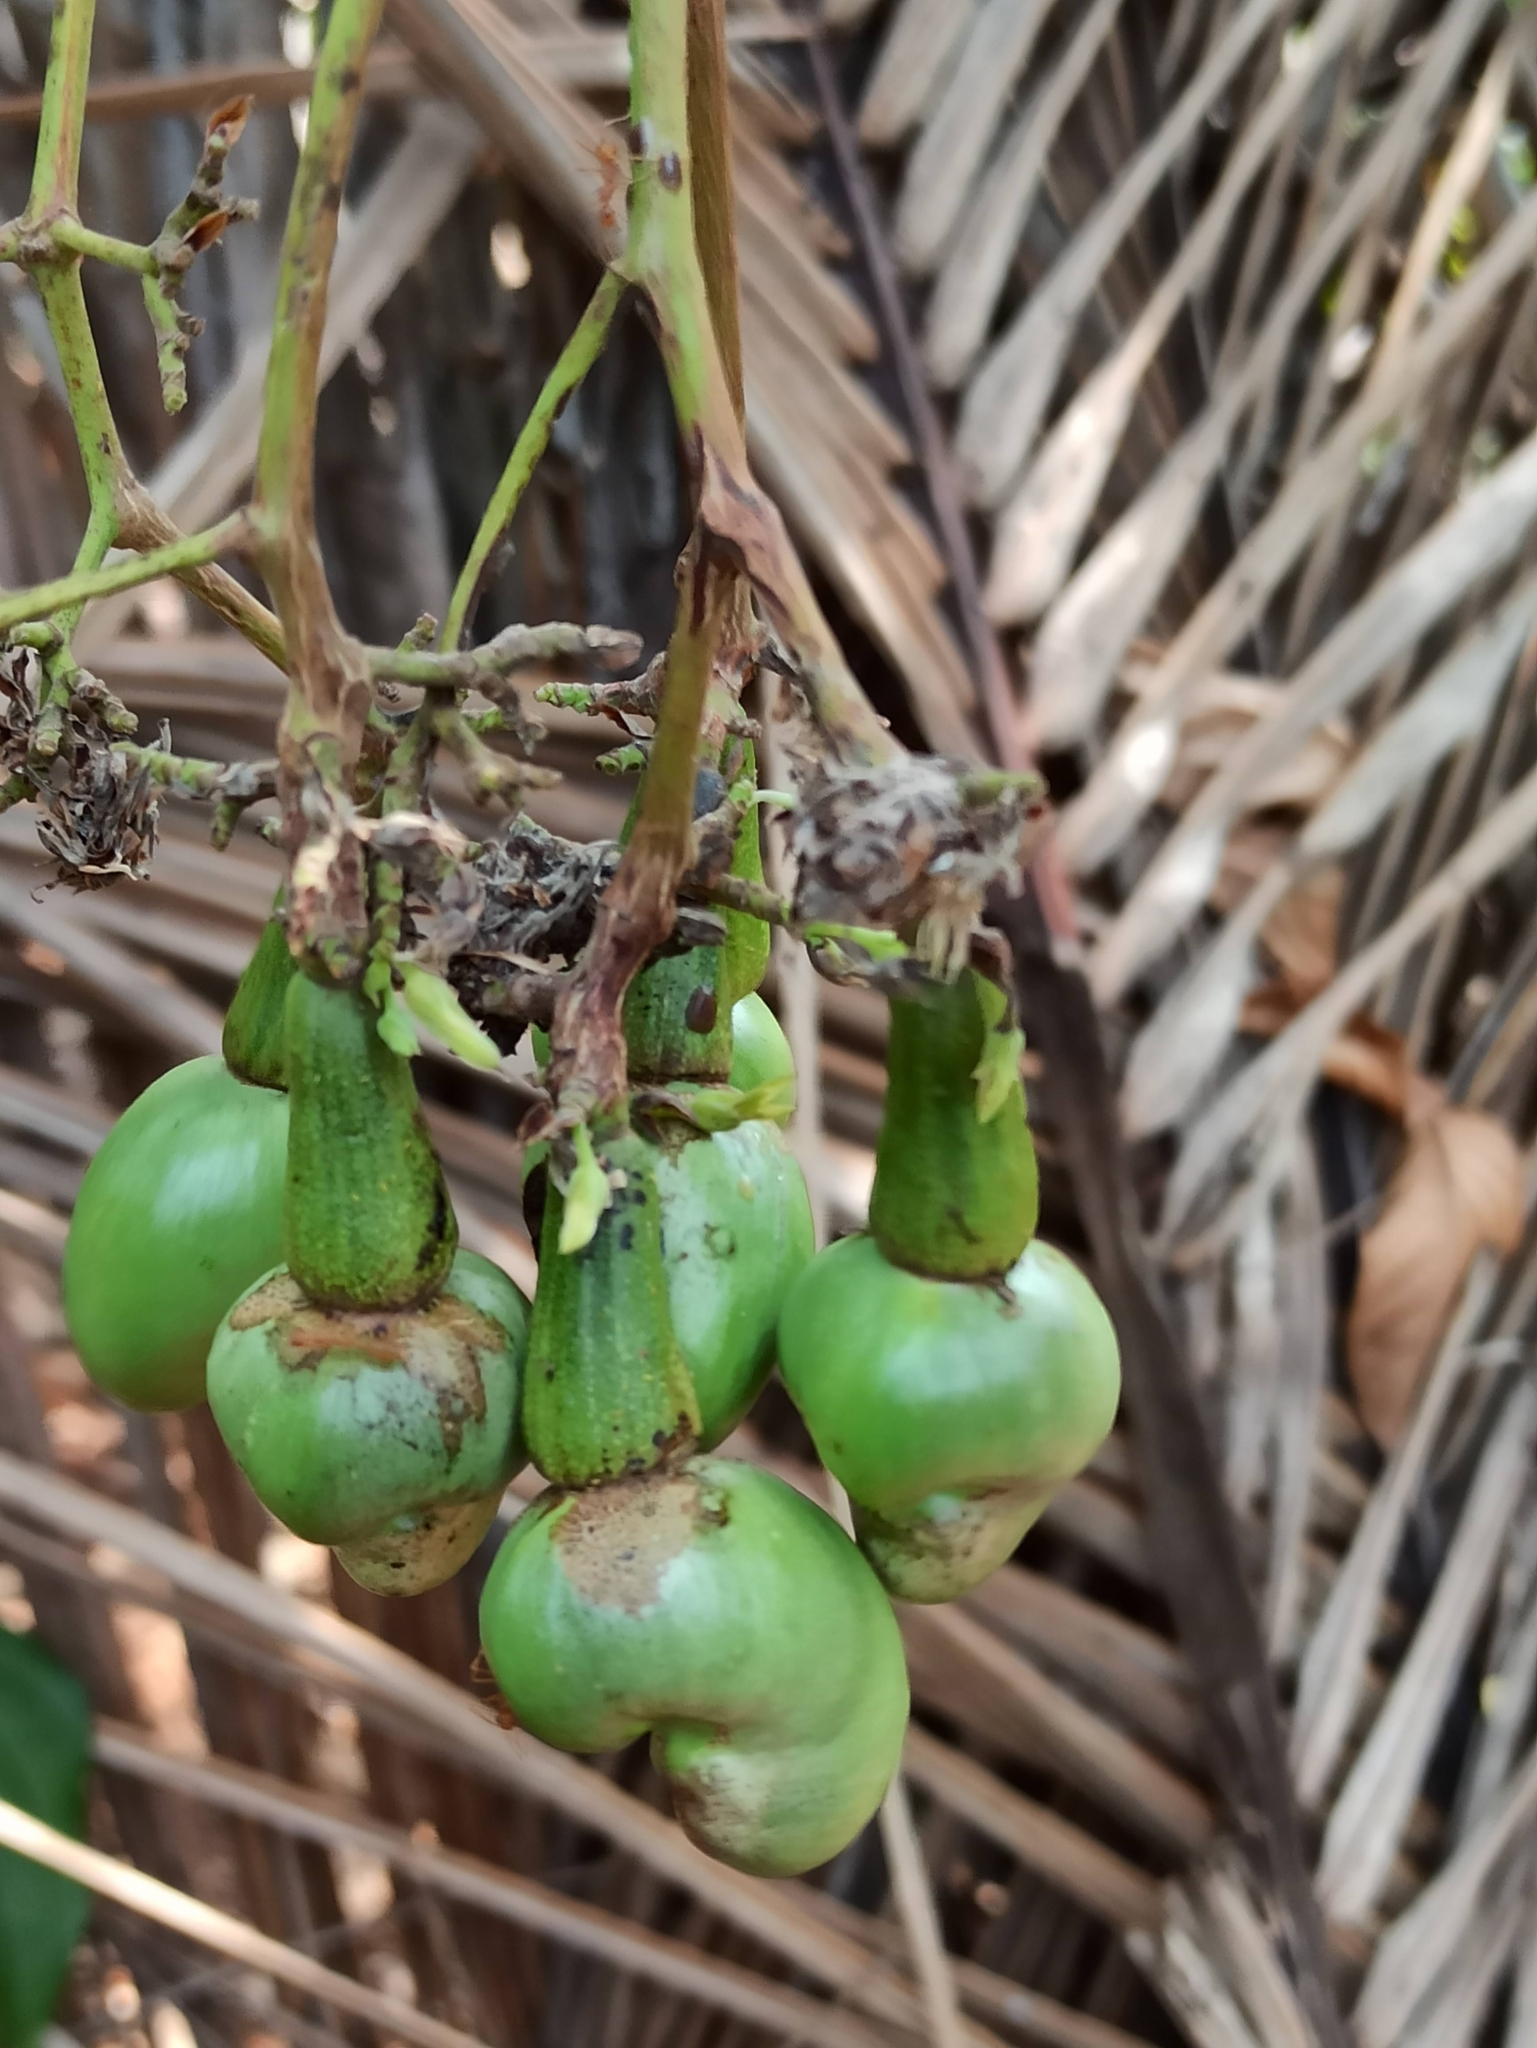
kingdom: Plantae
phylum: Tracheophyta
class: Magnoliopsida
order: Sapindales
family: Anacardiaceae
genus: Anacardium
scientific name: Anacardium occidentale
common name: Cashew
